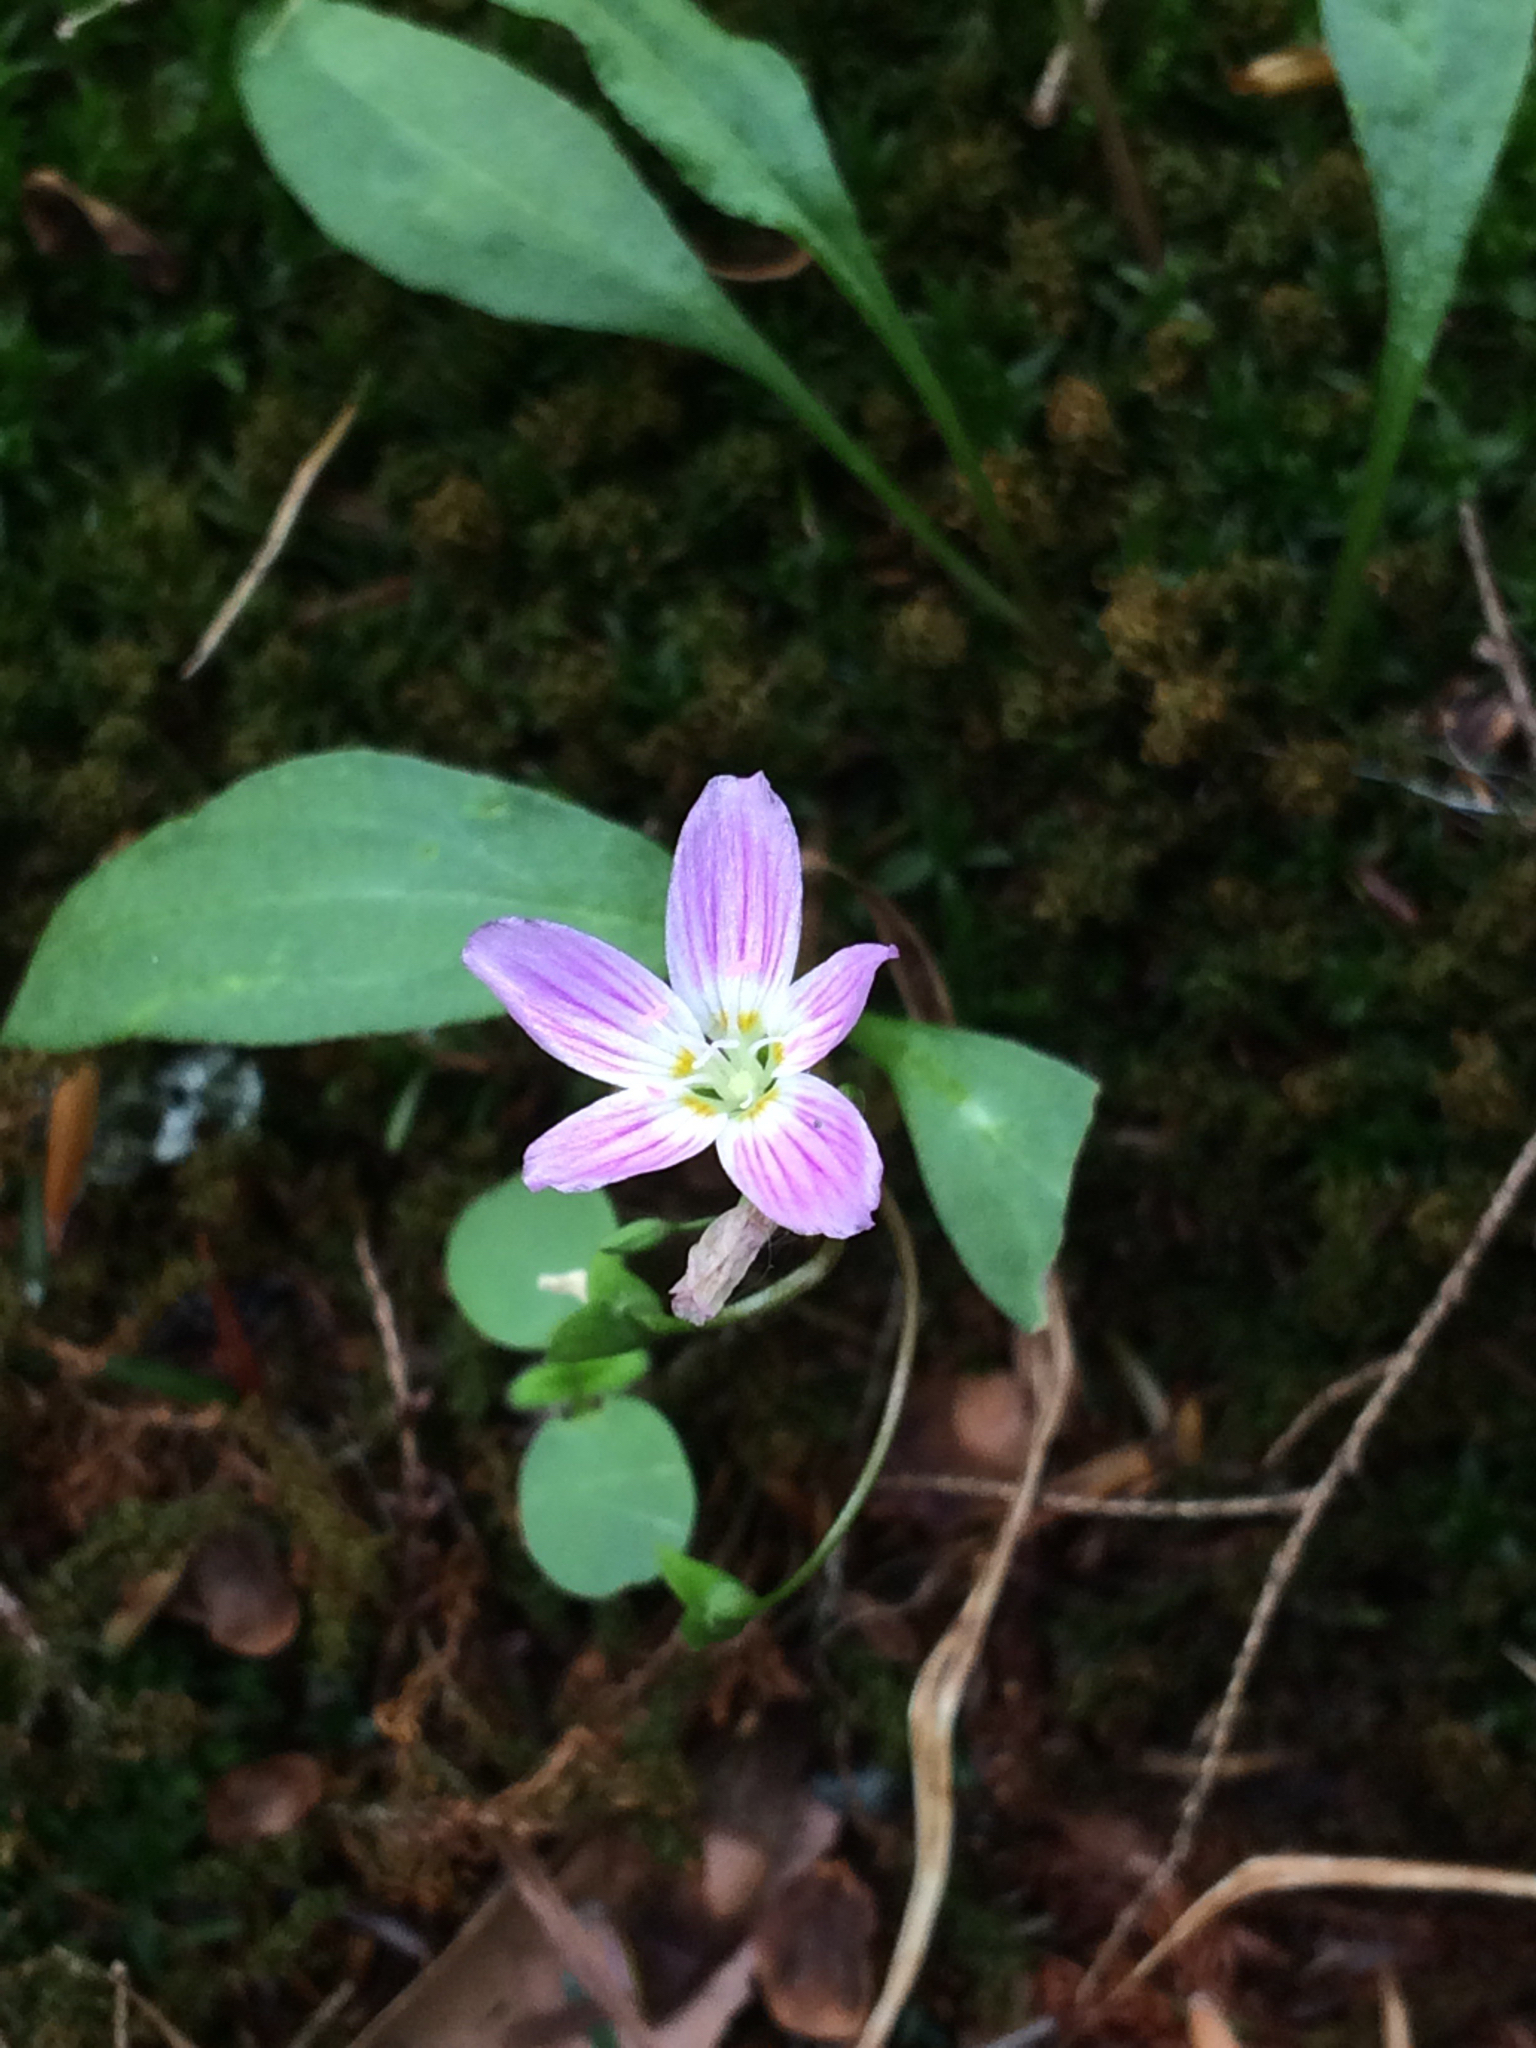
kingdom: Plantae
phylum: Tracheophyta
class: Magnoliopsida
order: Caryophyllales
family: Montiaceae
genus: Claytonia
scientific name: Claytonia caroliniana
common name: Carolina spring beauty
